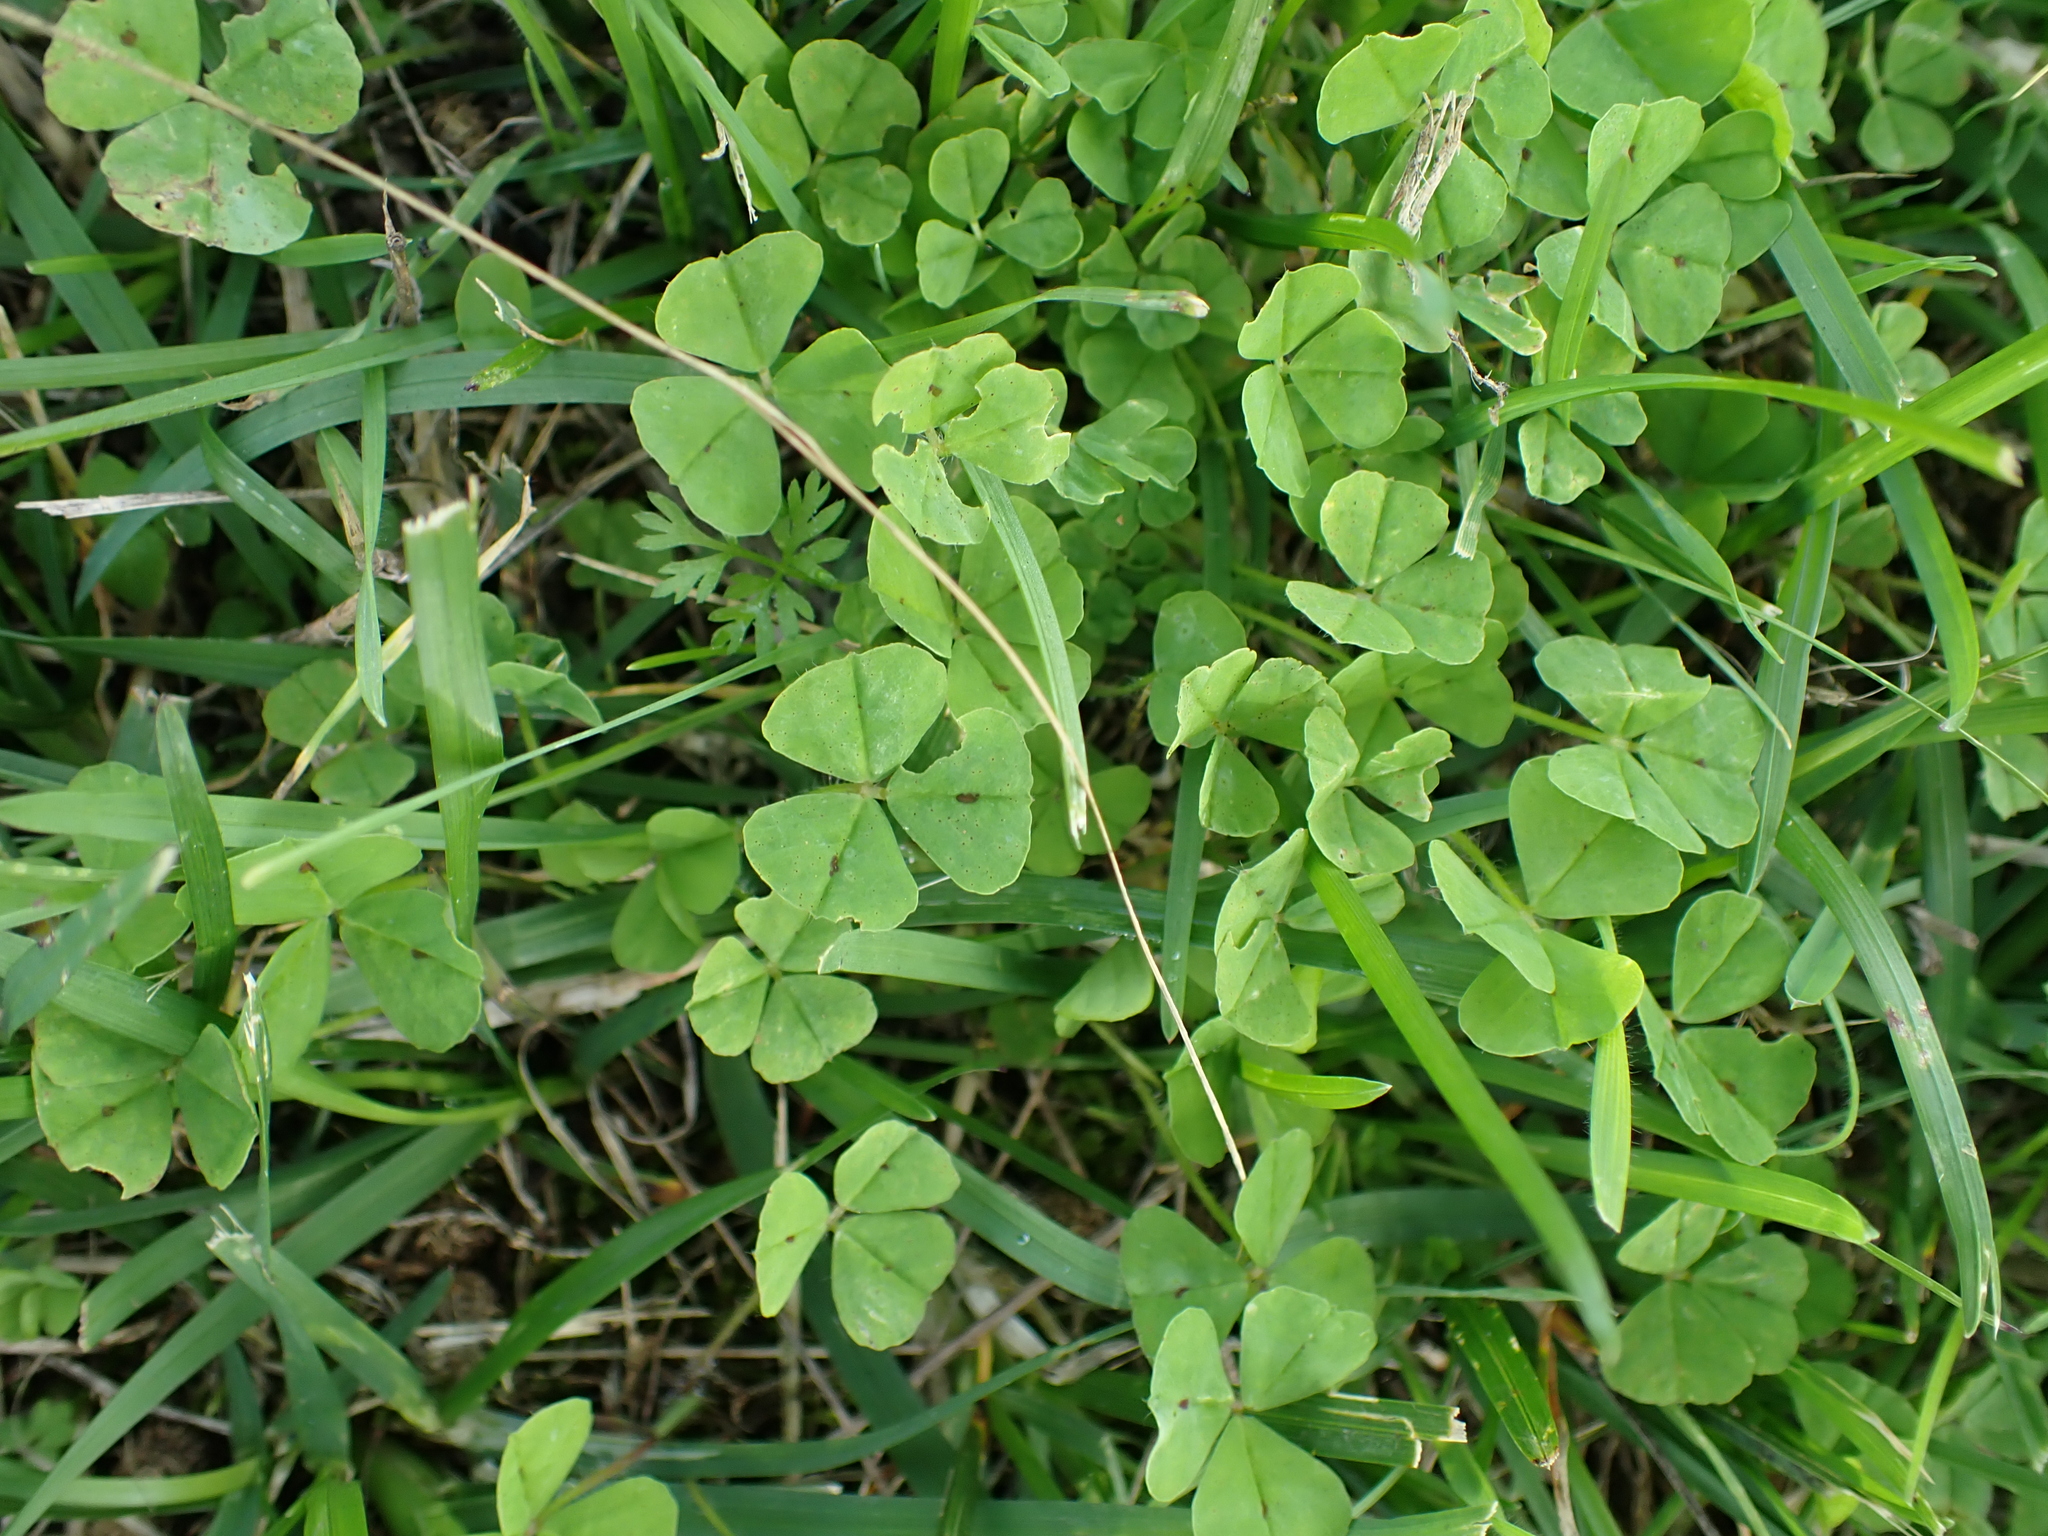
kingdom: Plantae
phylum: Tracheophyta
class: Magnoliopsida
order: Fabales
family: Fabaceae
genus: Medicago
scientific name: Medicago arabica
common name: Spotted medick
